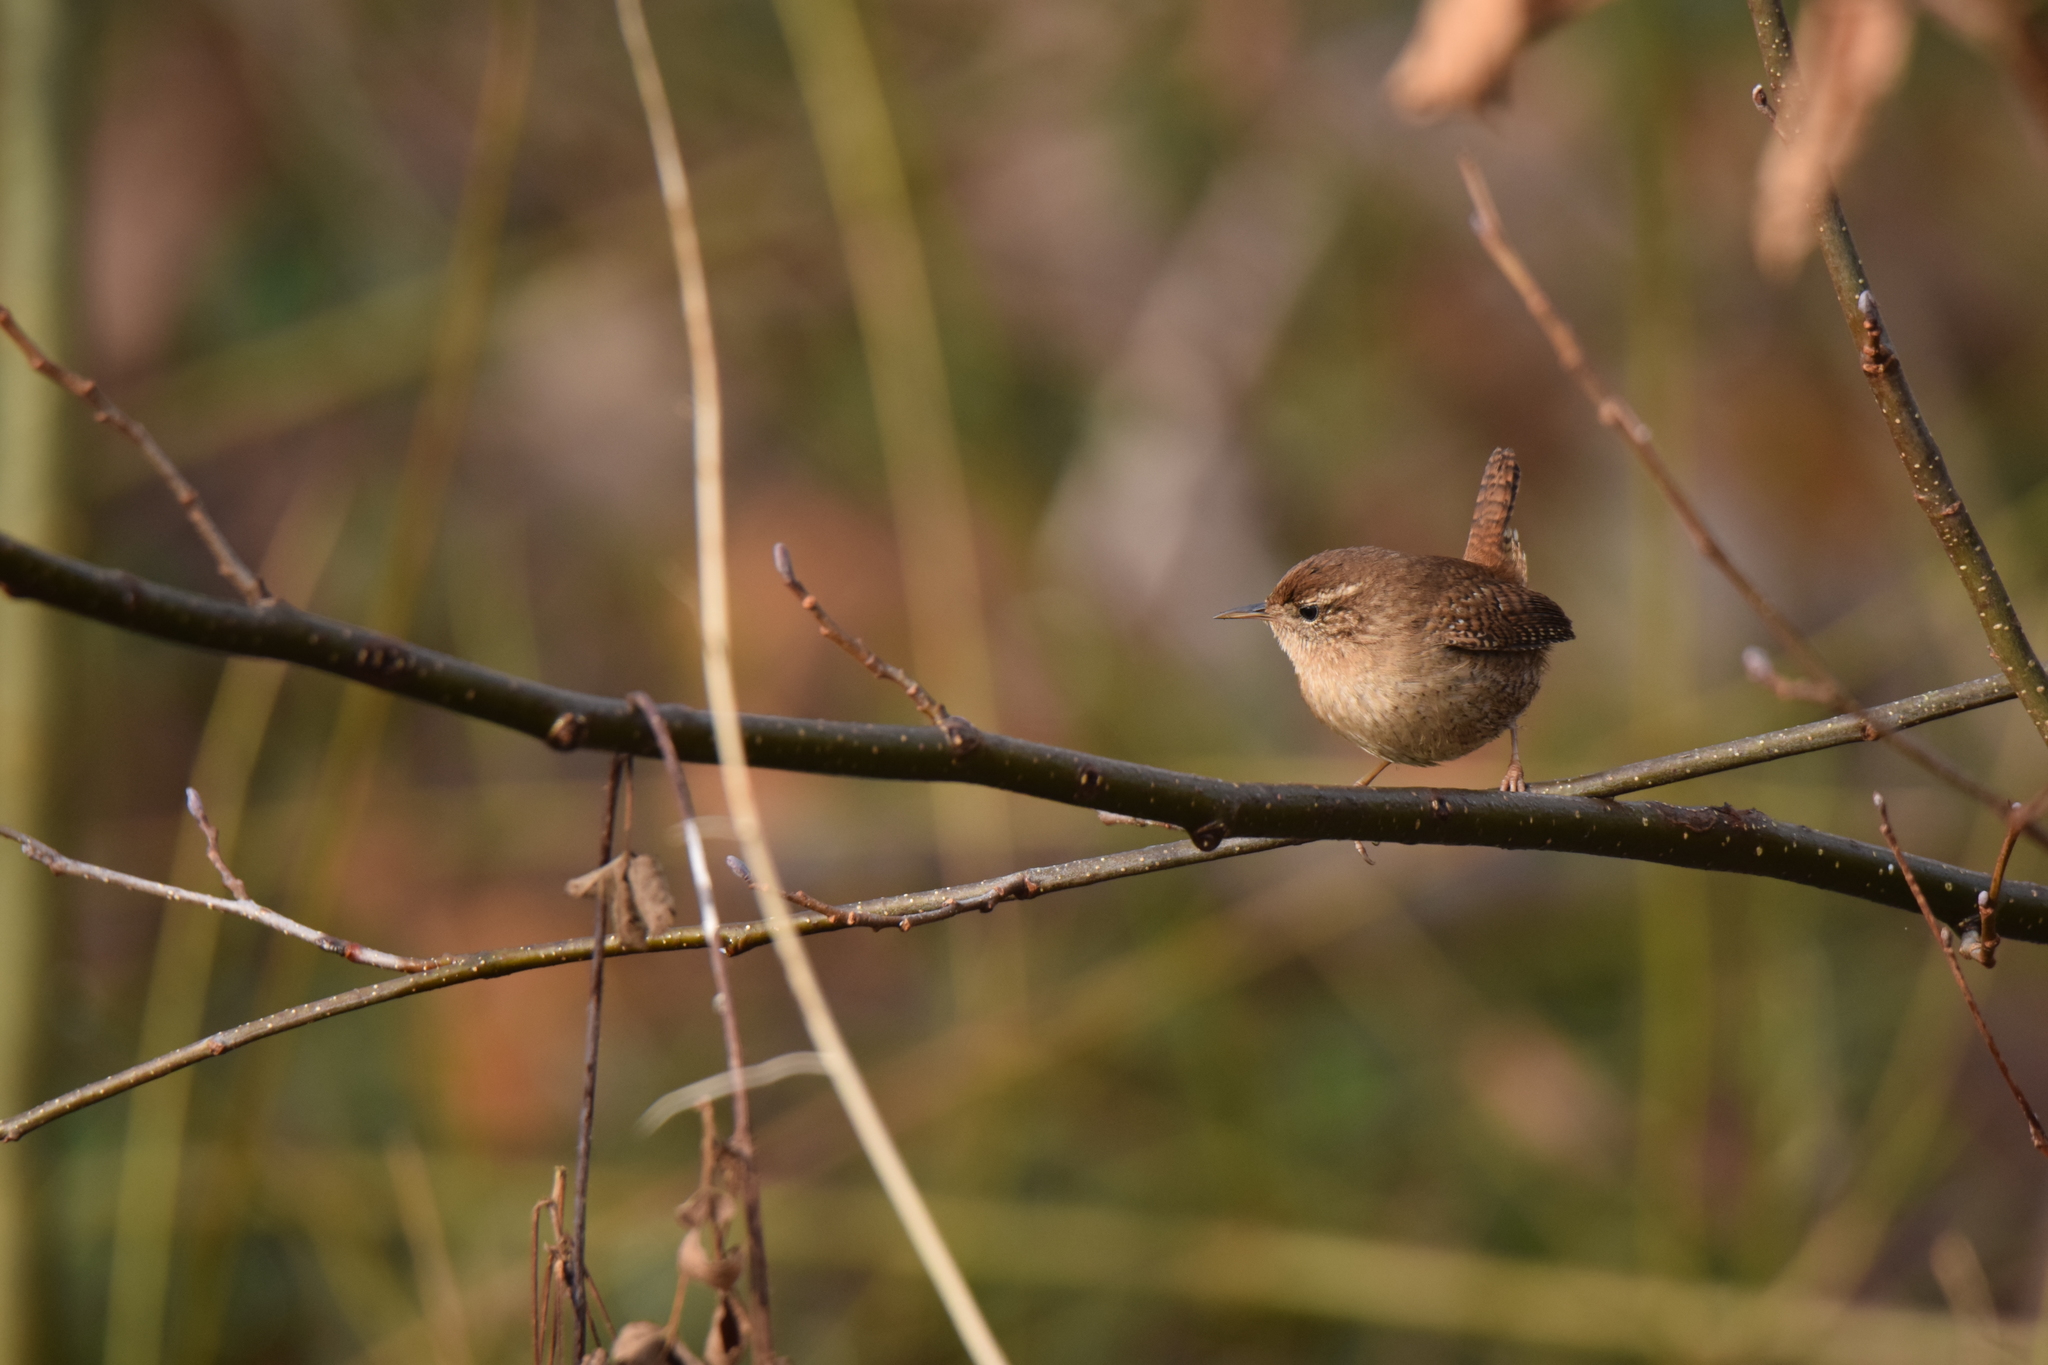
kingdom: Animalia
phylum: Chordata
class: Aves
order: Passeriformes
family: Troglodytidae
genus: Troglodytes
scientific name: Troglodytes troglodytes
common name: Eurasian wren
